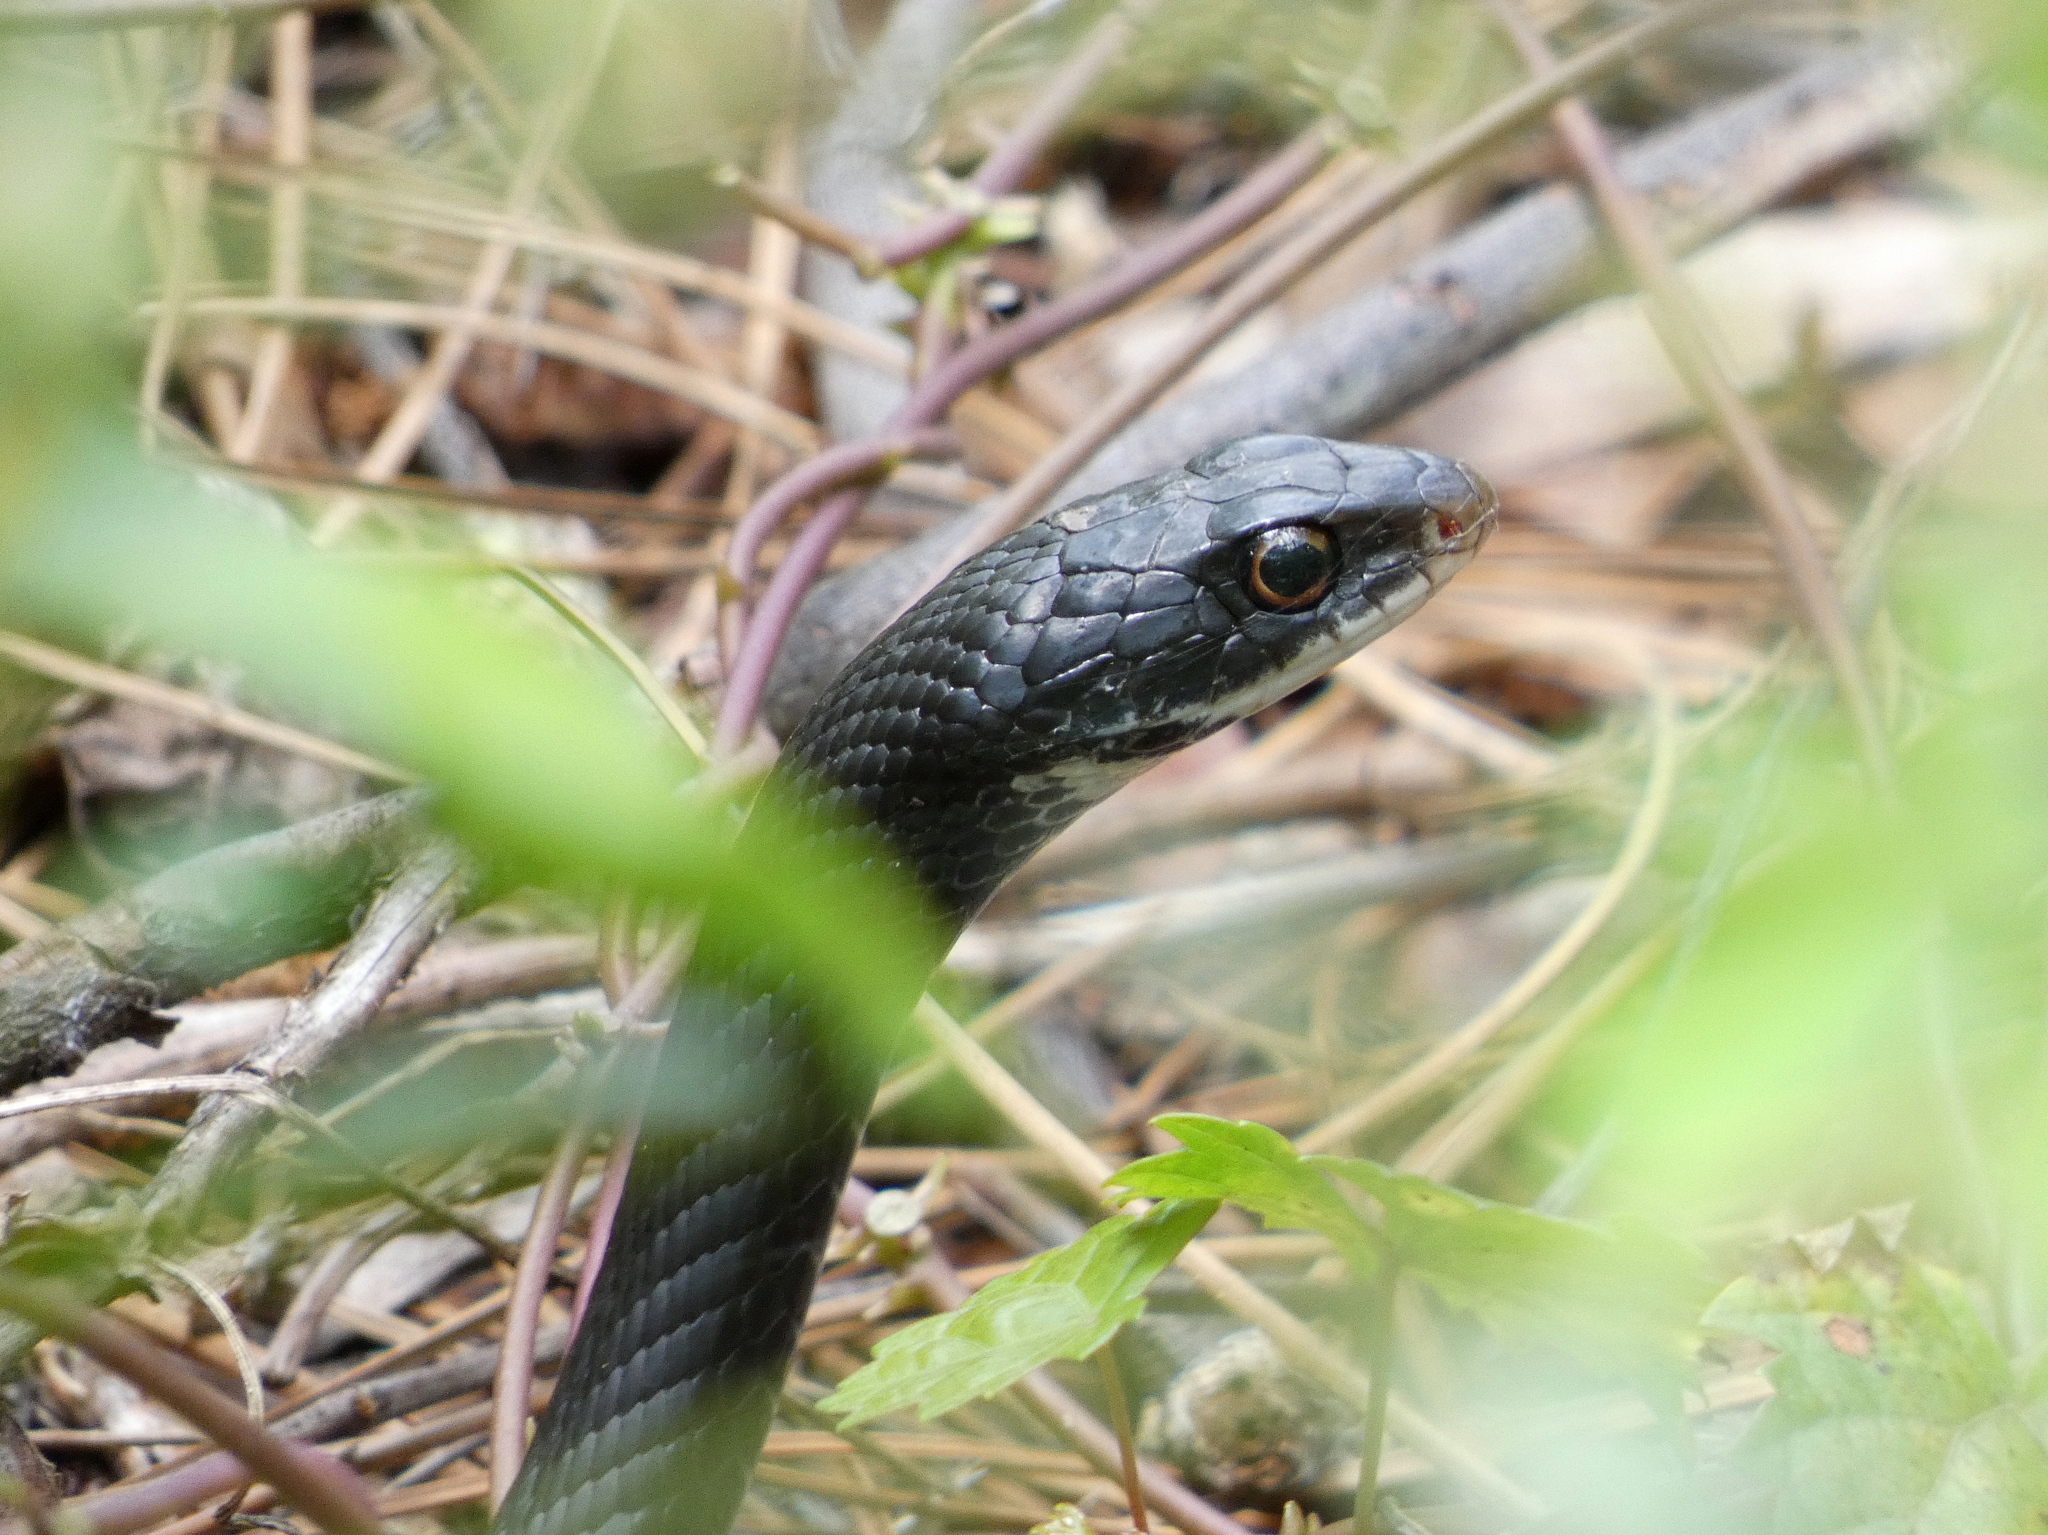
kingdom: Animalia
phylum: Chordata
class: Squamata
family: Colubridae
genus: Coluber
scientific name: Coluber constrictor
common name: Eastern racer
